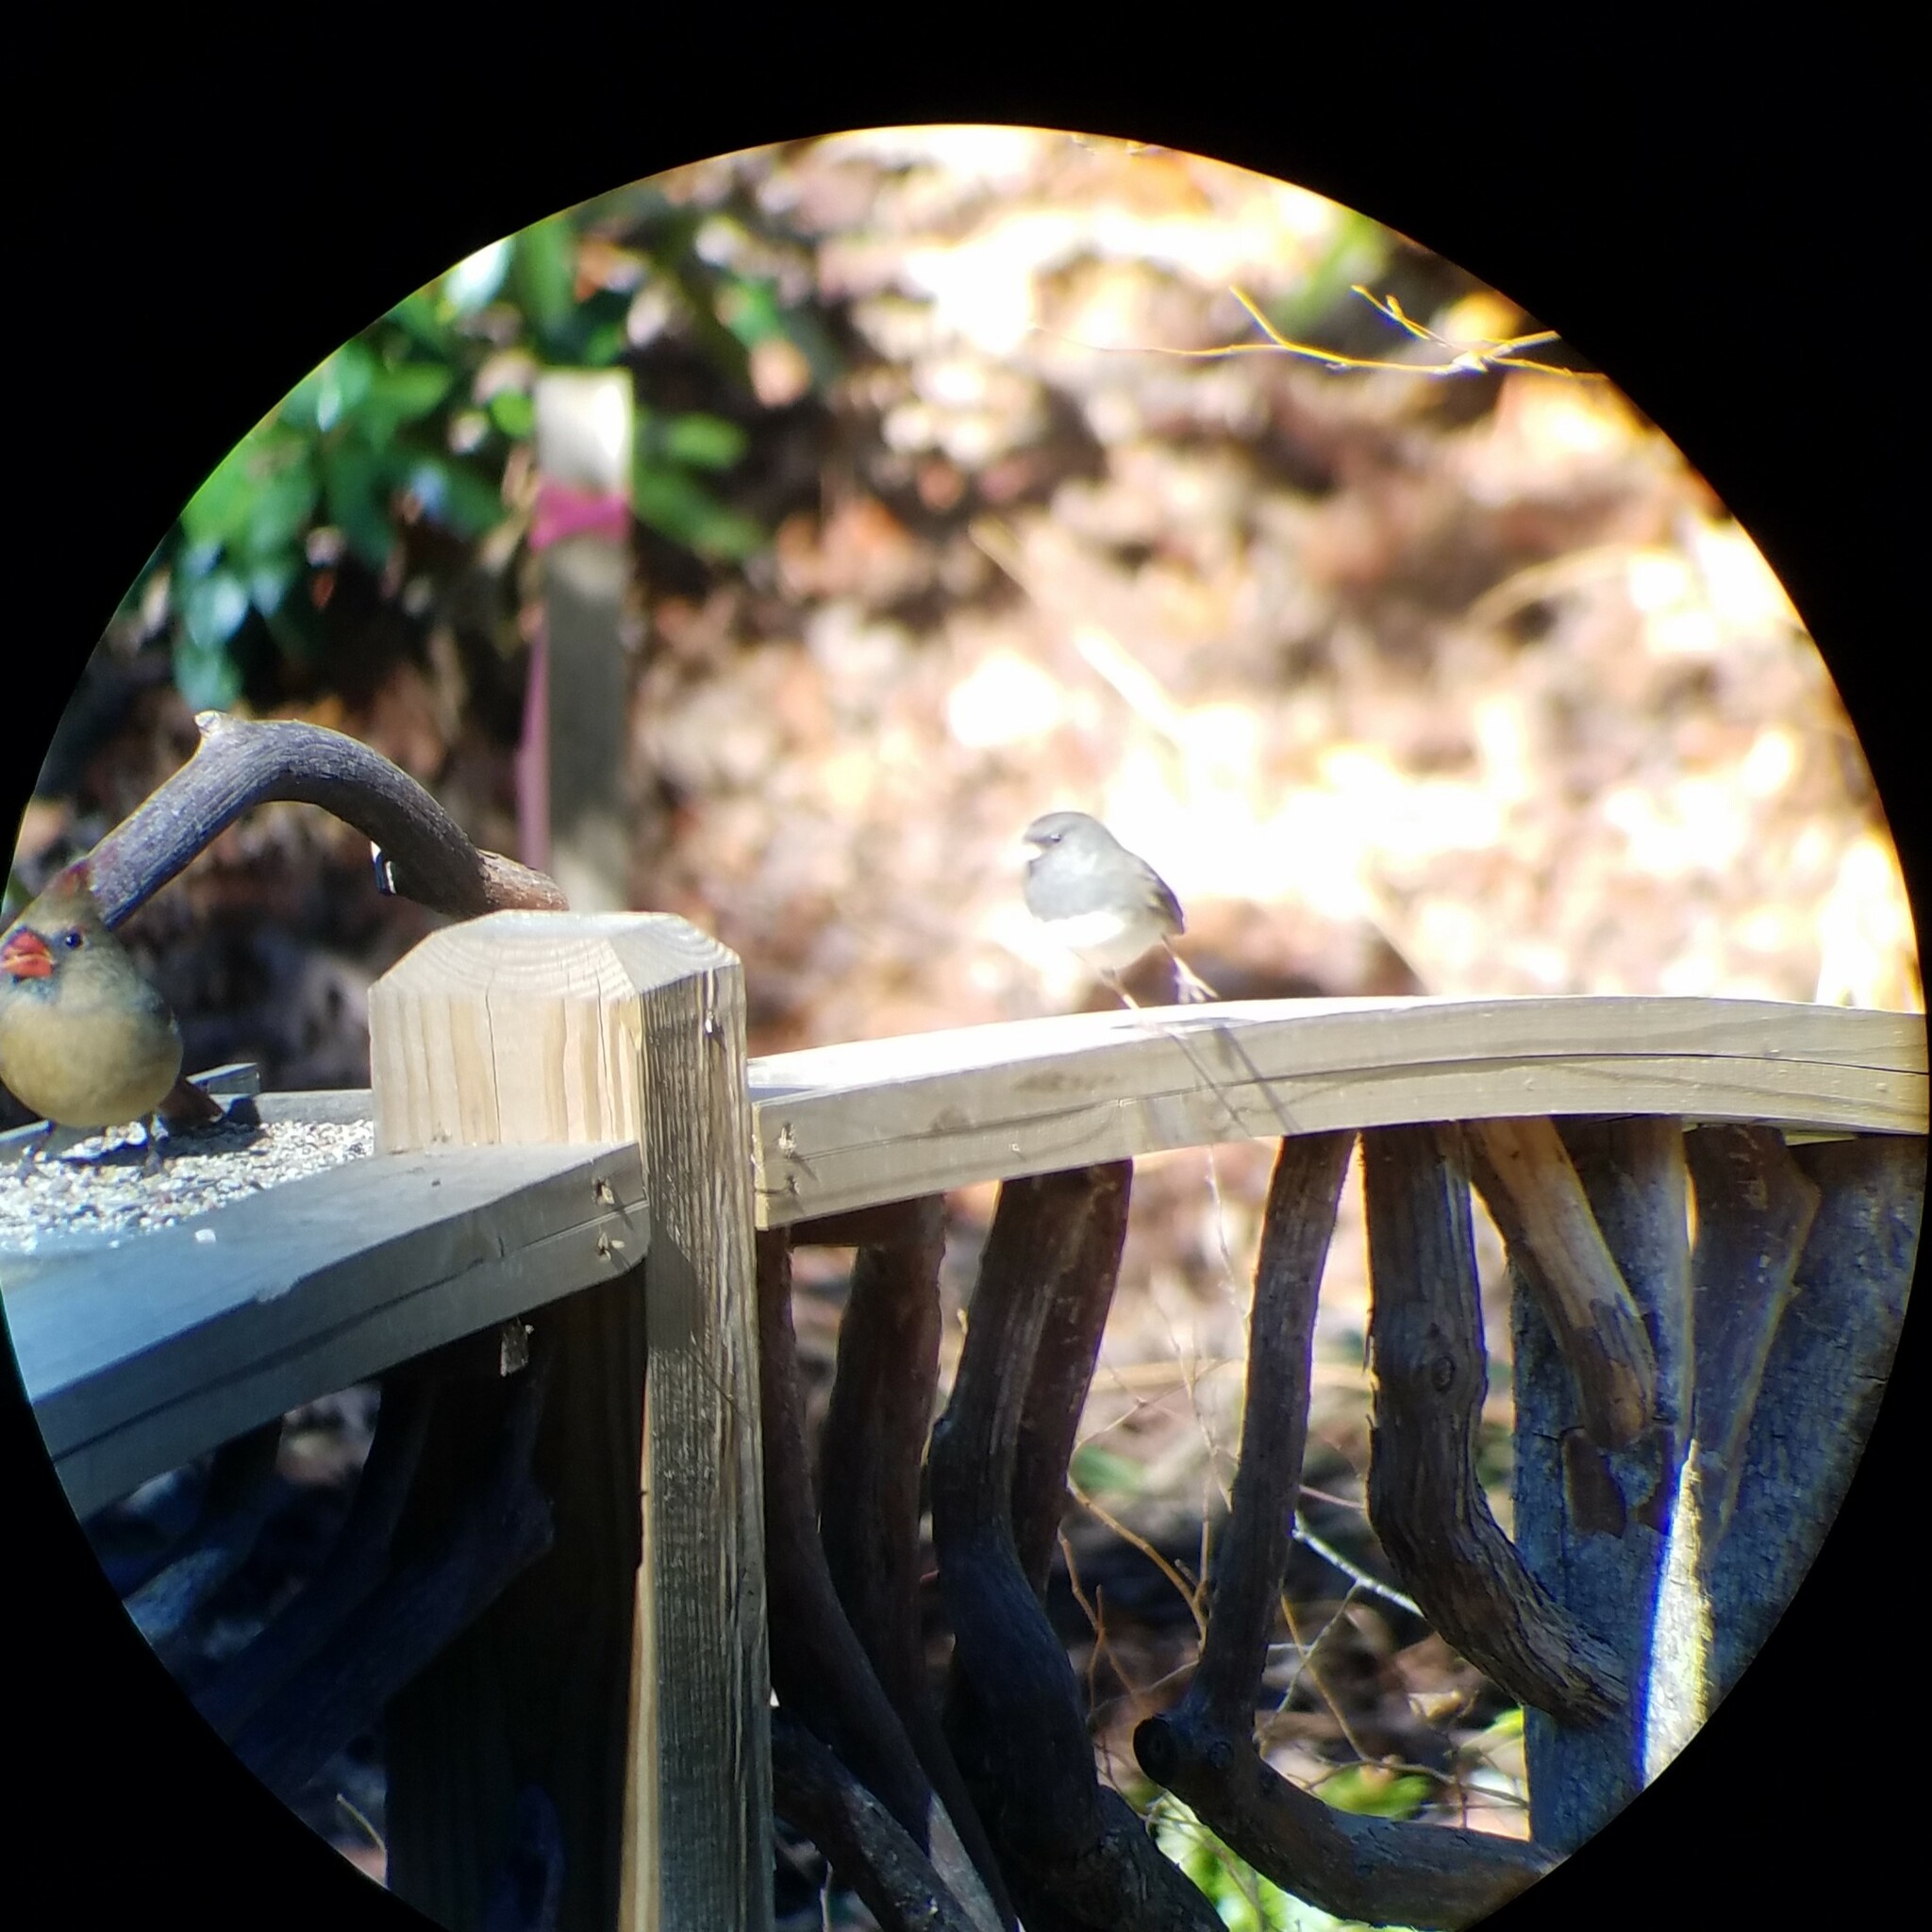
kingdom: Animalia
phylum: Chordata
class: Aves
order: Passeriformes
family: Passerellidae
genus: Junco
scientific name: Junco hyemalis
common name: Dark-eyed junco
